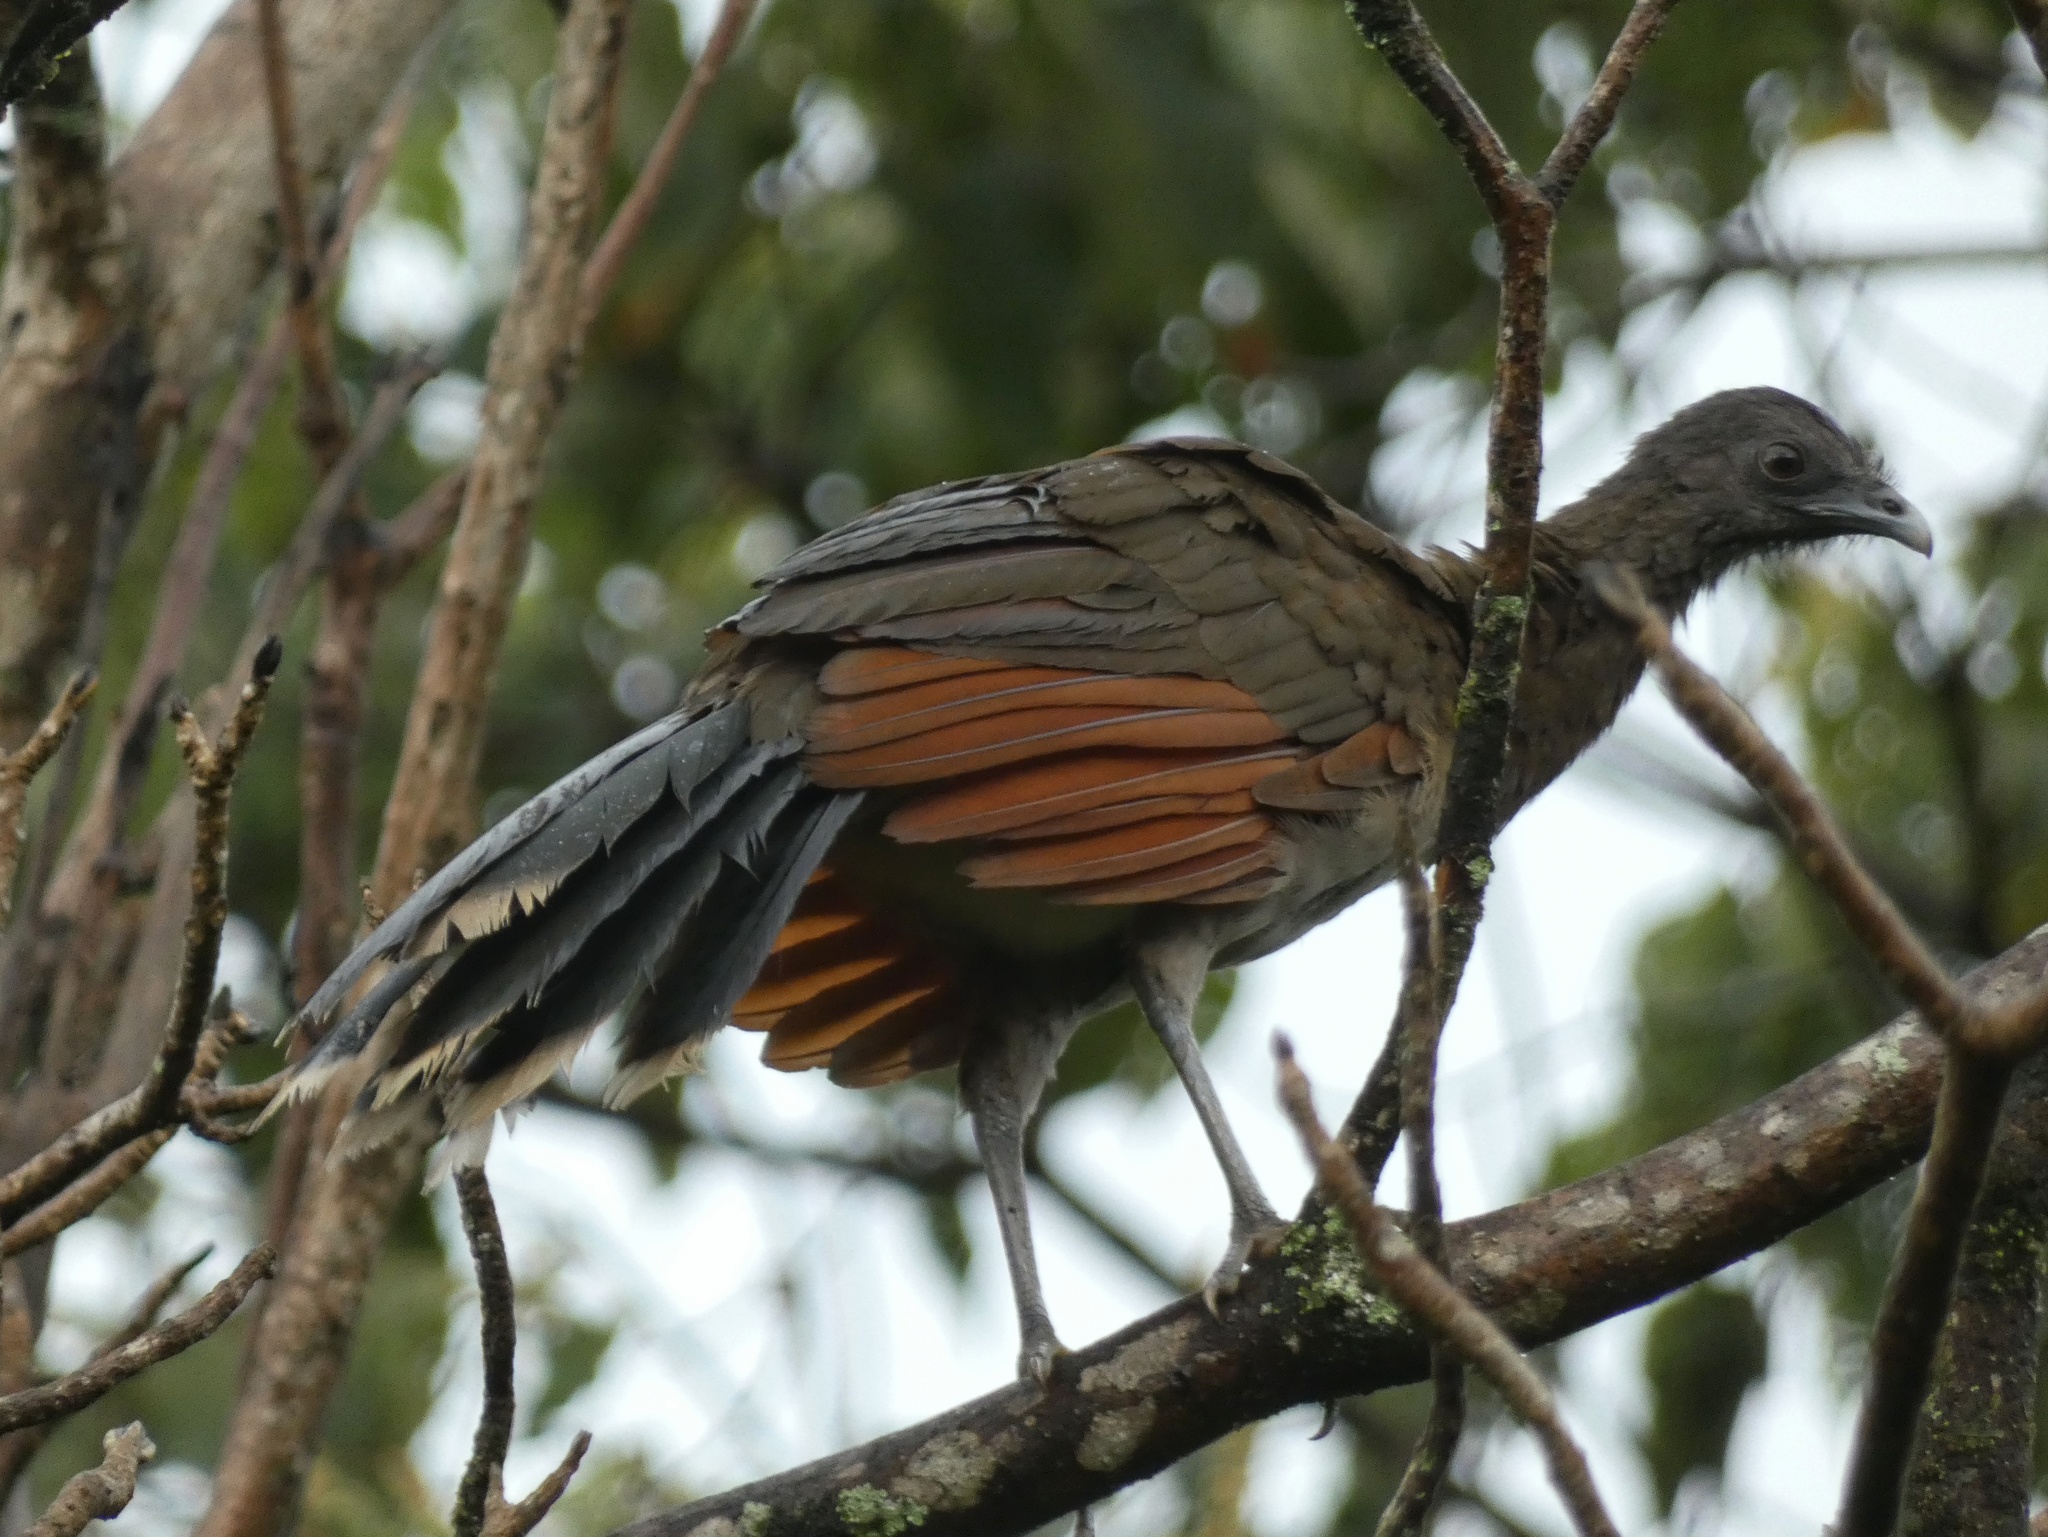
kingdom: Animalia
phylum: Chordata
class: Aves
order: Galliformes
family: Cracidae
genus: Ortalis
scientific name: Ortalis cinereiceps
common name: Grey-headed chachalaca
